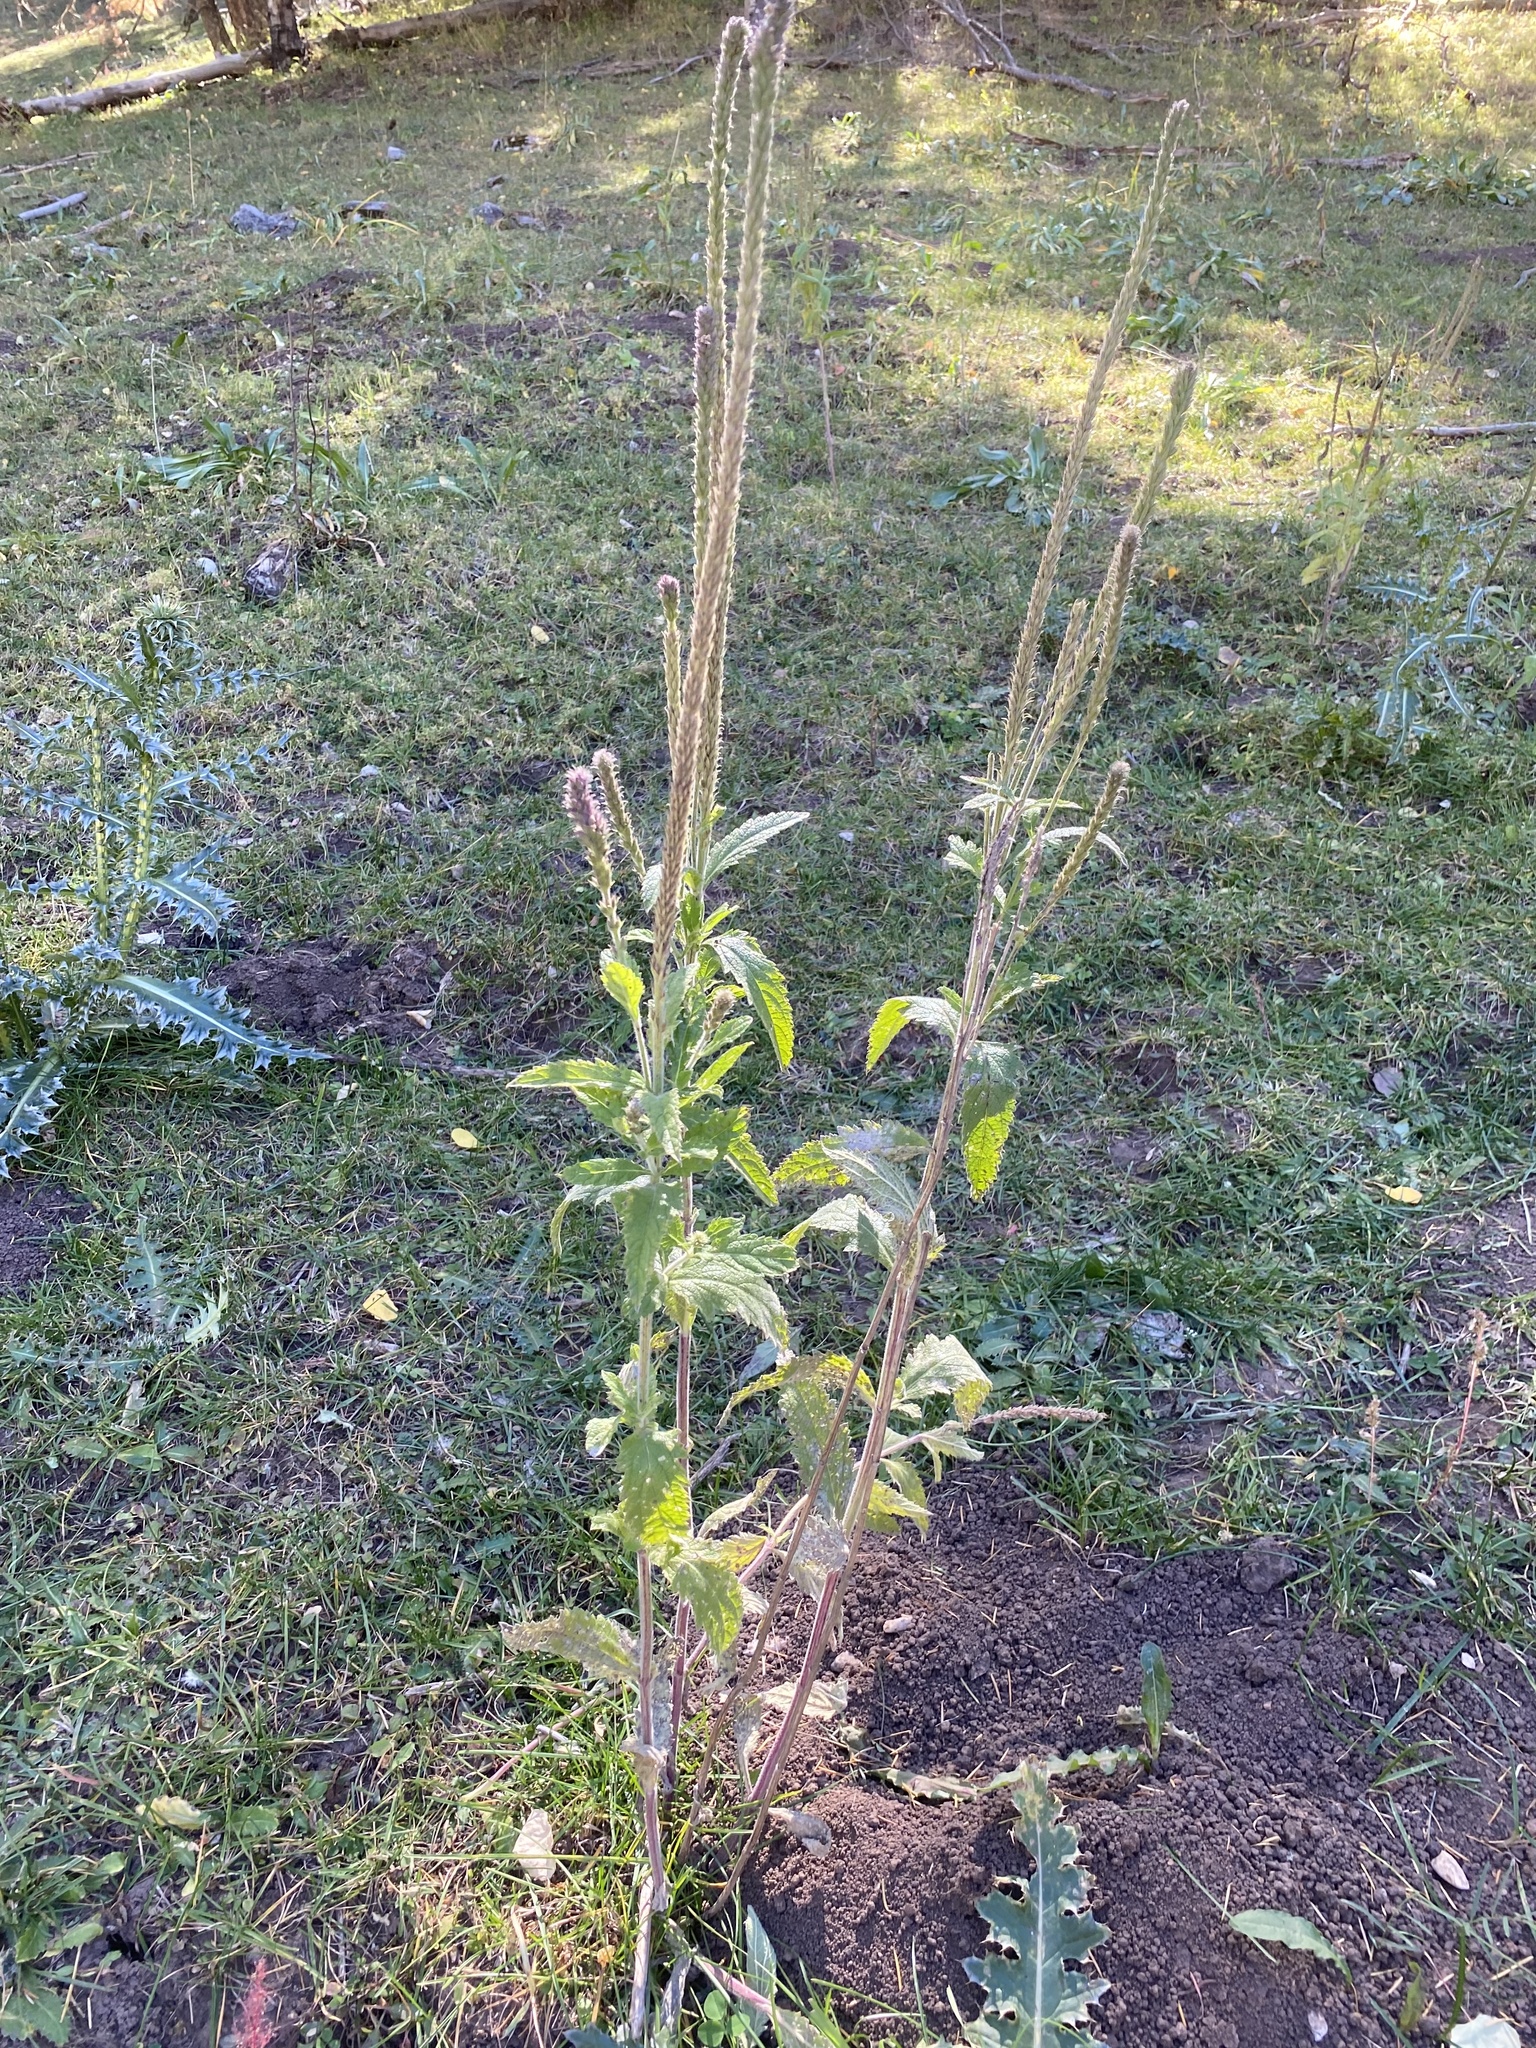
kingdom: Plantae
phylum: Tracheophyta
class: Magnoliopsida
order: Lamiales
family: Verbenaceae
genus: Verbena
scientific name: Verbena macdougalii
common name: New mexico vervain
